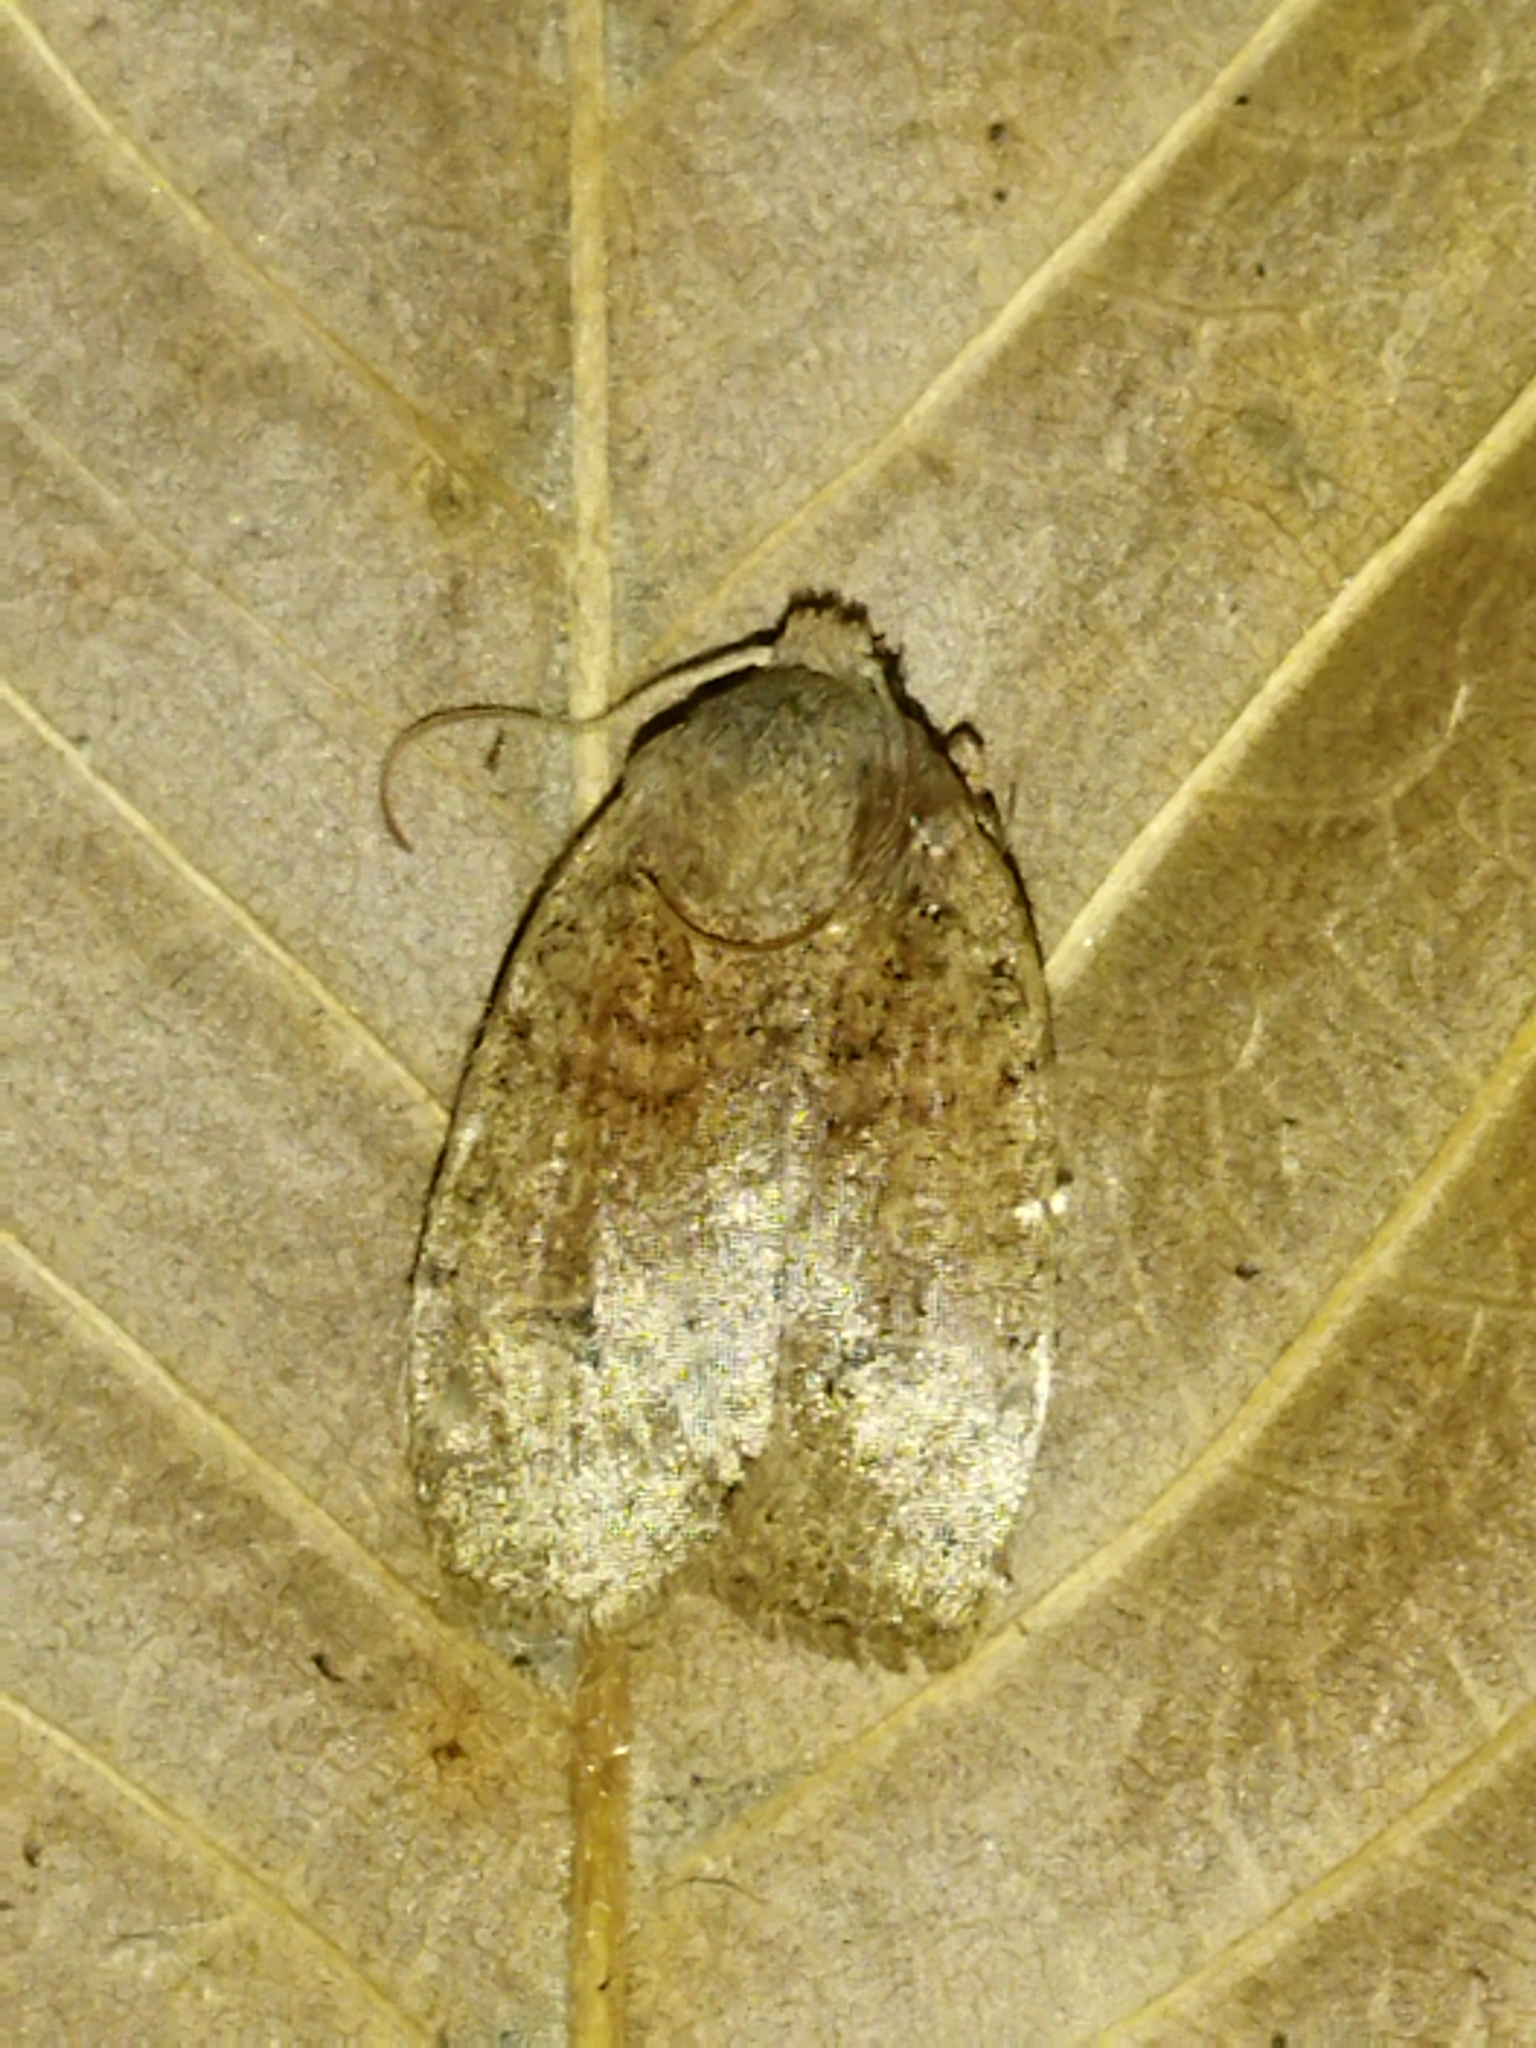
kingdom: Animalia
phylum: Arthropoda
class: Insecta
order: Lepidoptera
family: Noctuidae
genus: Conistra
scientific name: Conistra ragusae
